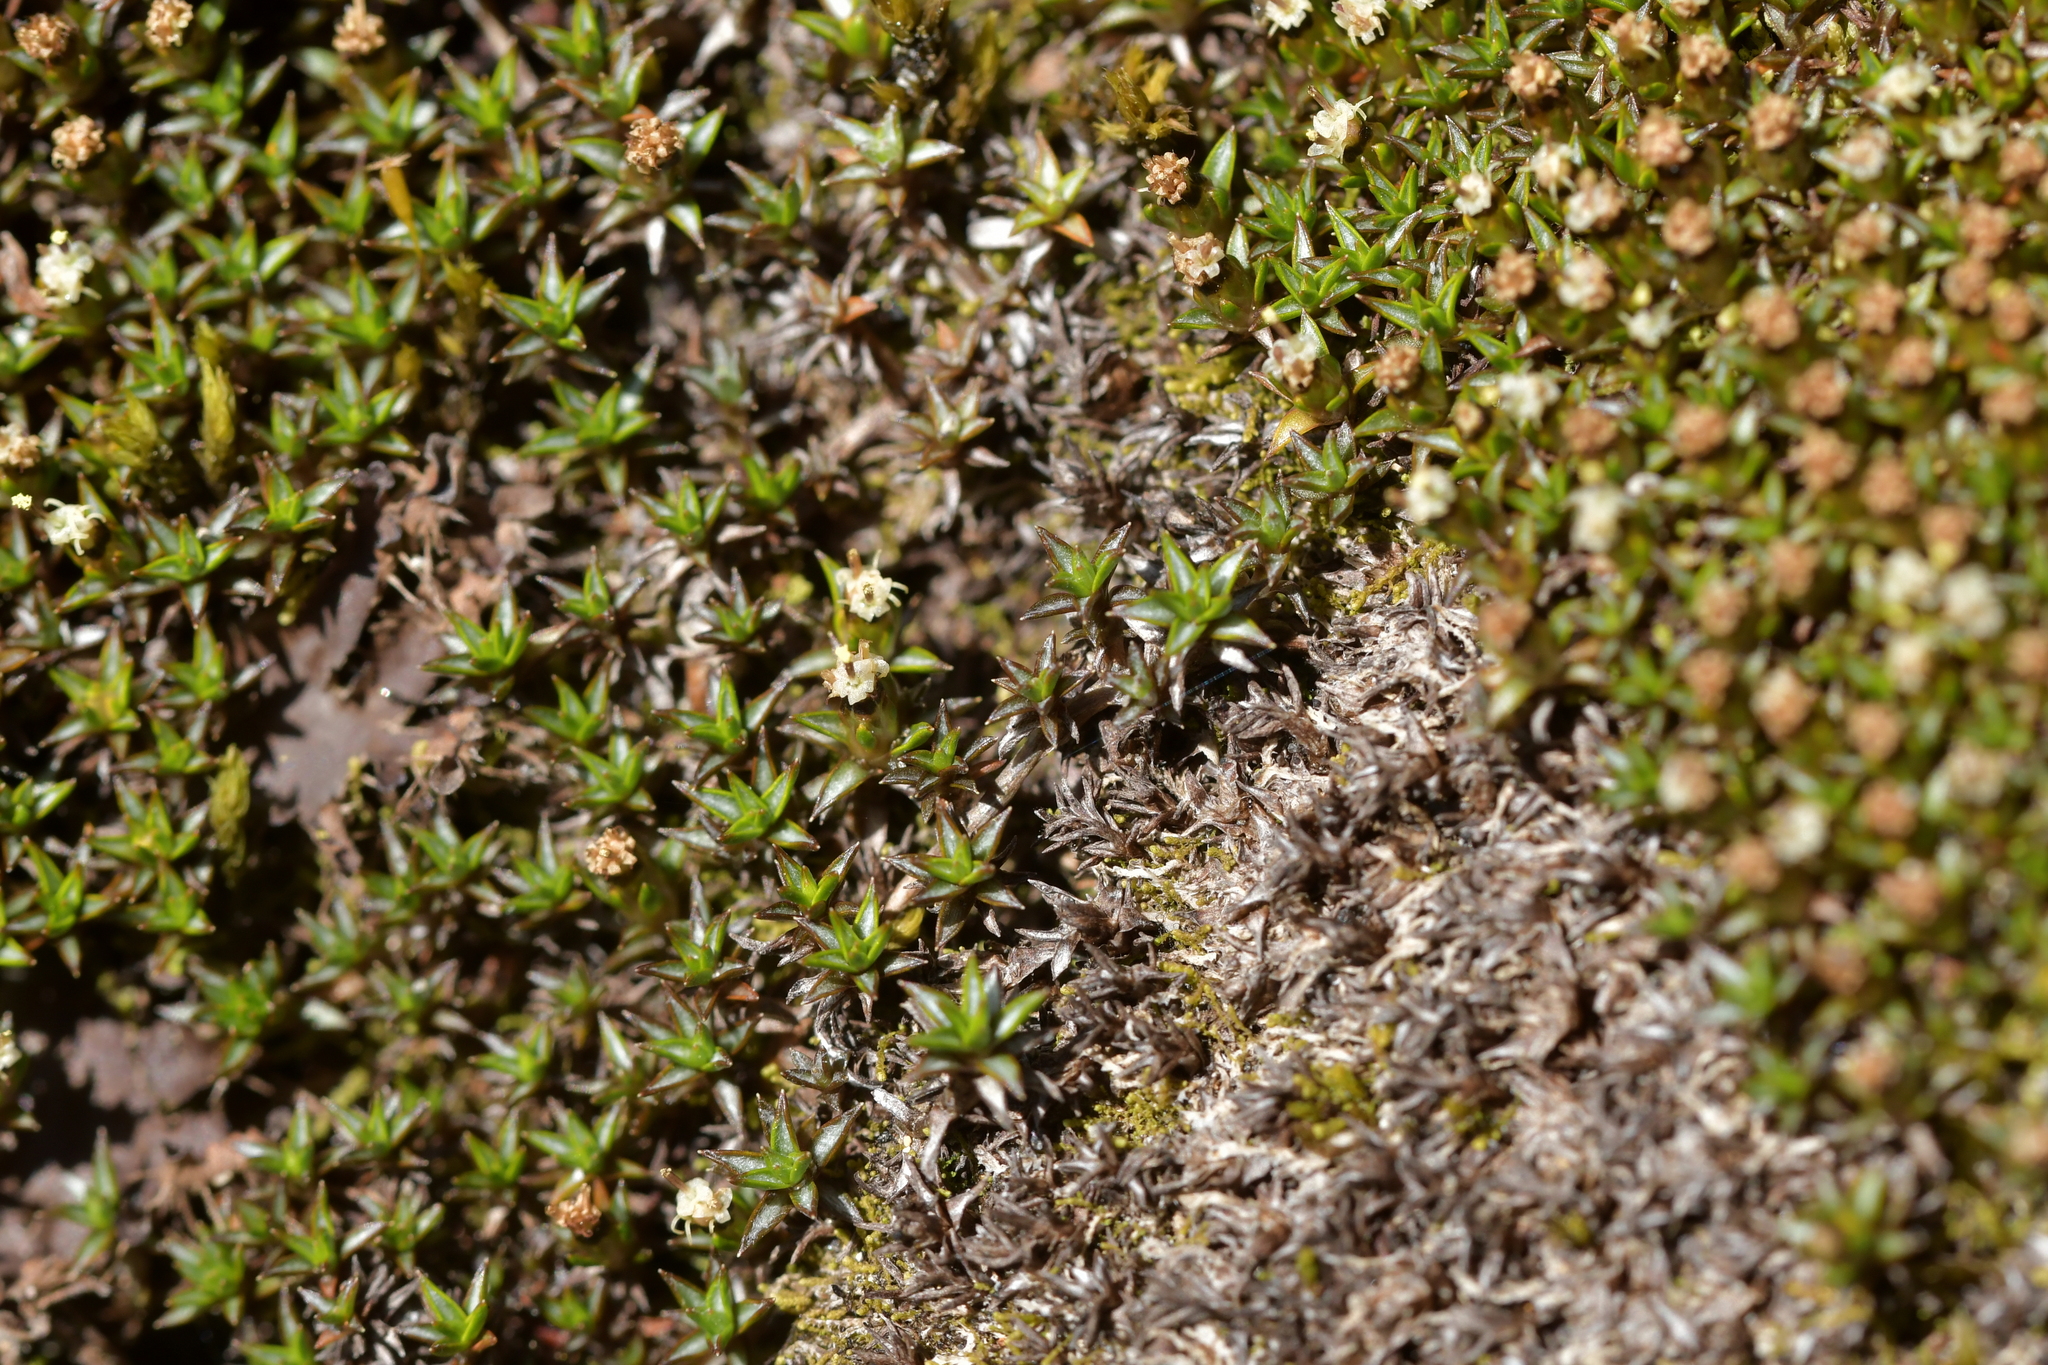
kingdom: Plantae
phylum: Tracheophyta
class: Magnoliopsida
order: Asterales
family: Asteraceae
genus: Raoulia
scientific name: Raoulia tenuicaulis
